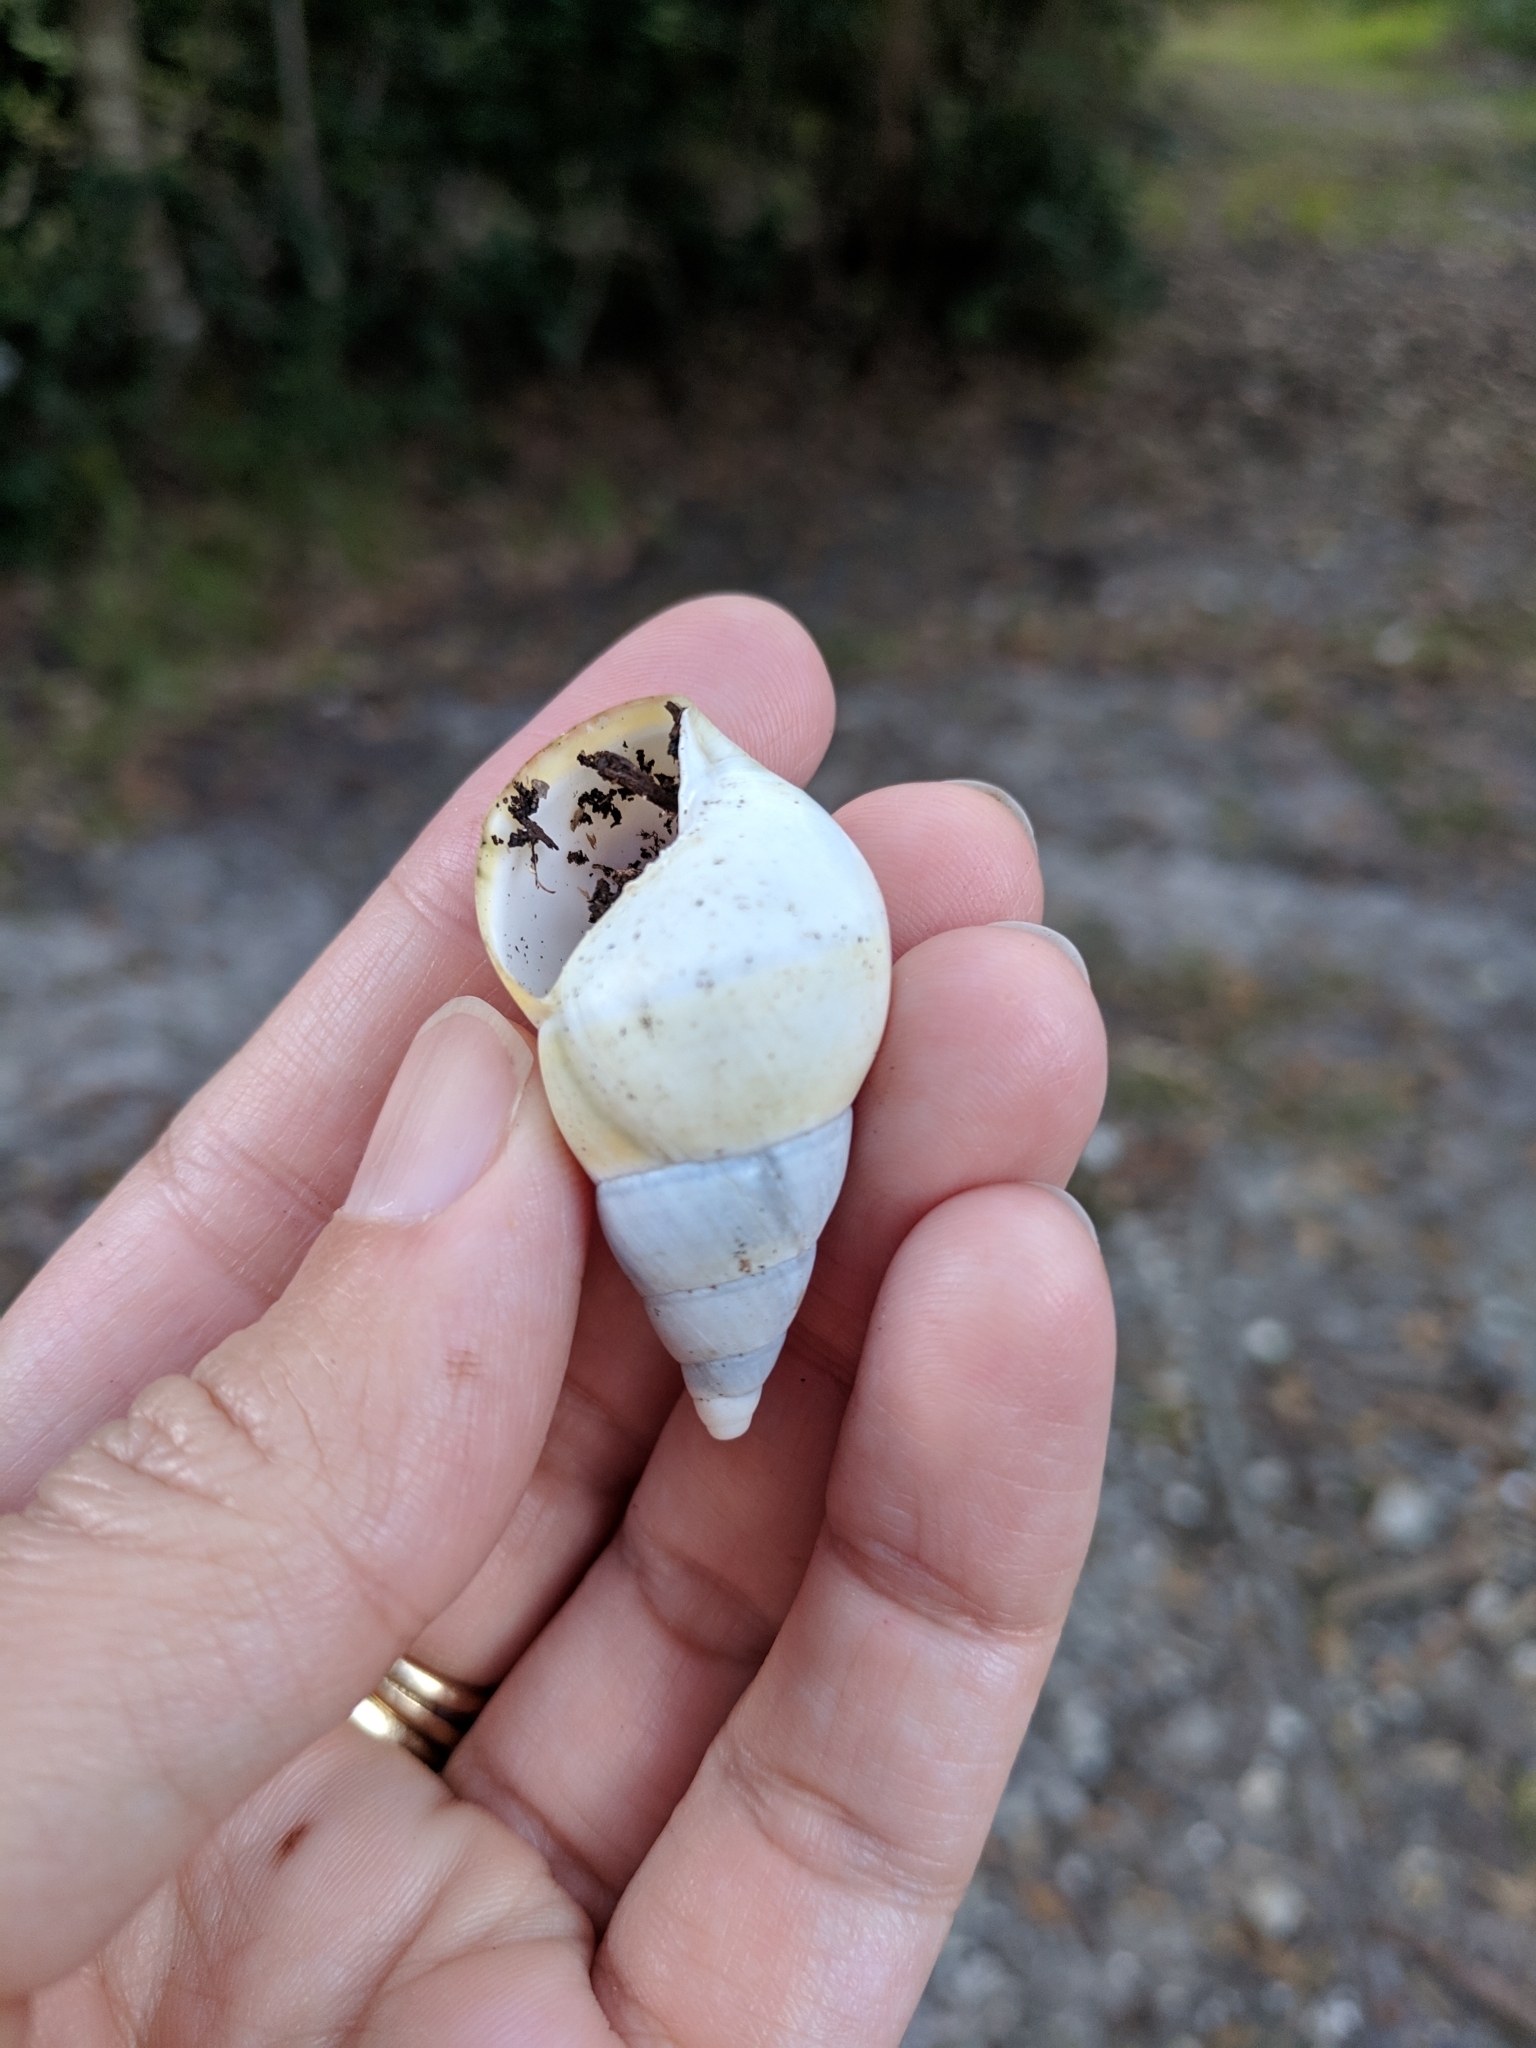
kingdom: Animalia
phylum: Mollusca
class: Gastropoda
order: Stylommatophora
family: Orthalicidae
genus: Liguus
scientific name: Liguus fasciatus
